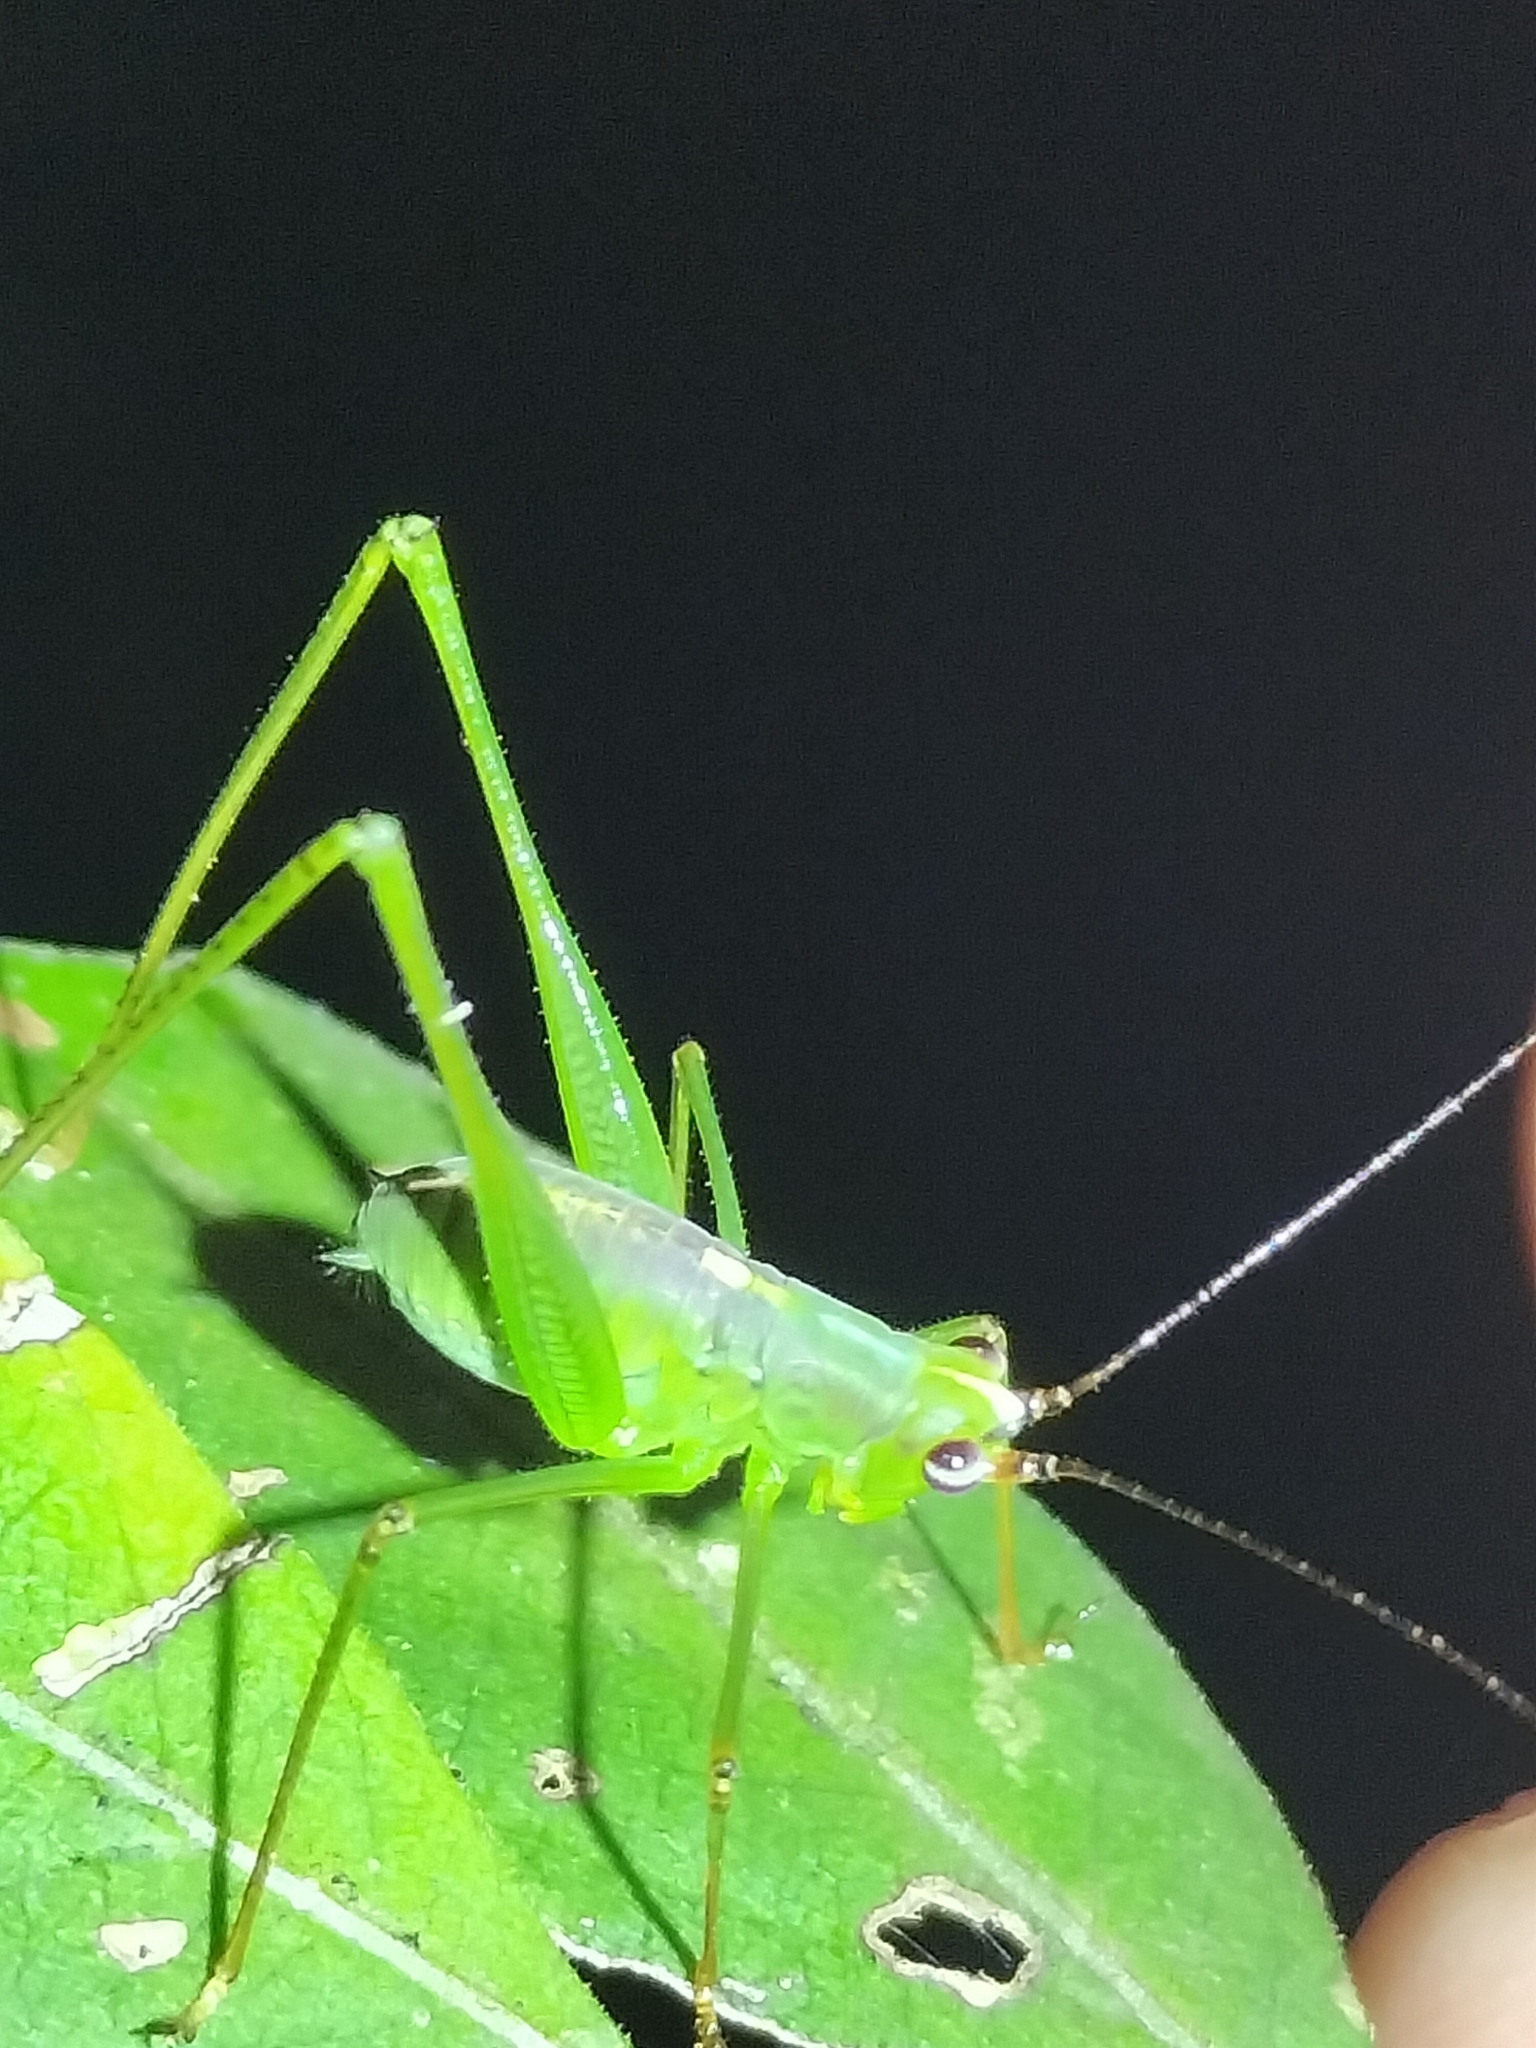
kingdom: Animalia
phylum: Arthropoda
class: Insecta
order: Orthoptera
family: Tettigoniidae
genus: Leucopodoptera
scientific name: Leucopodoptera eumundii
